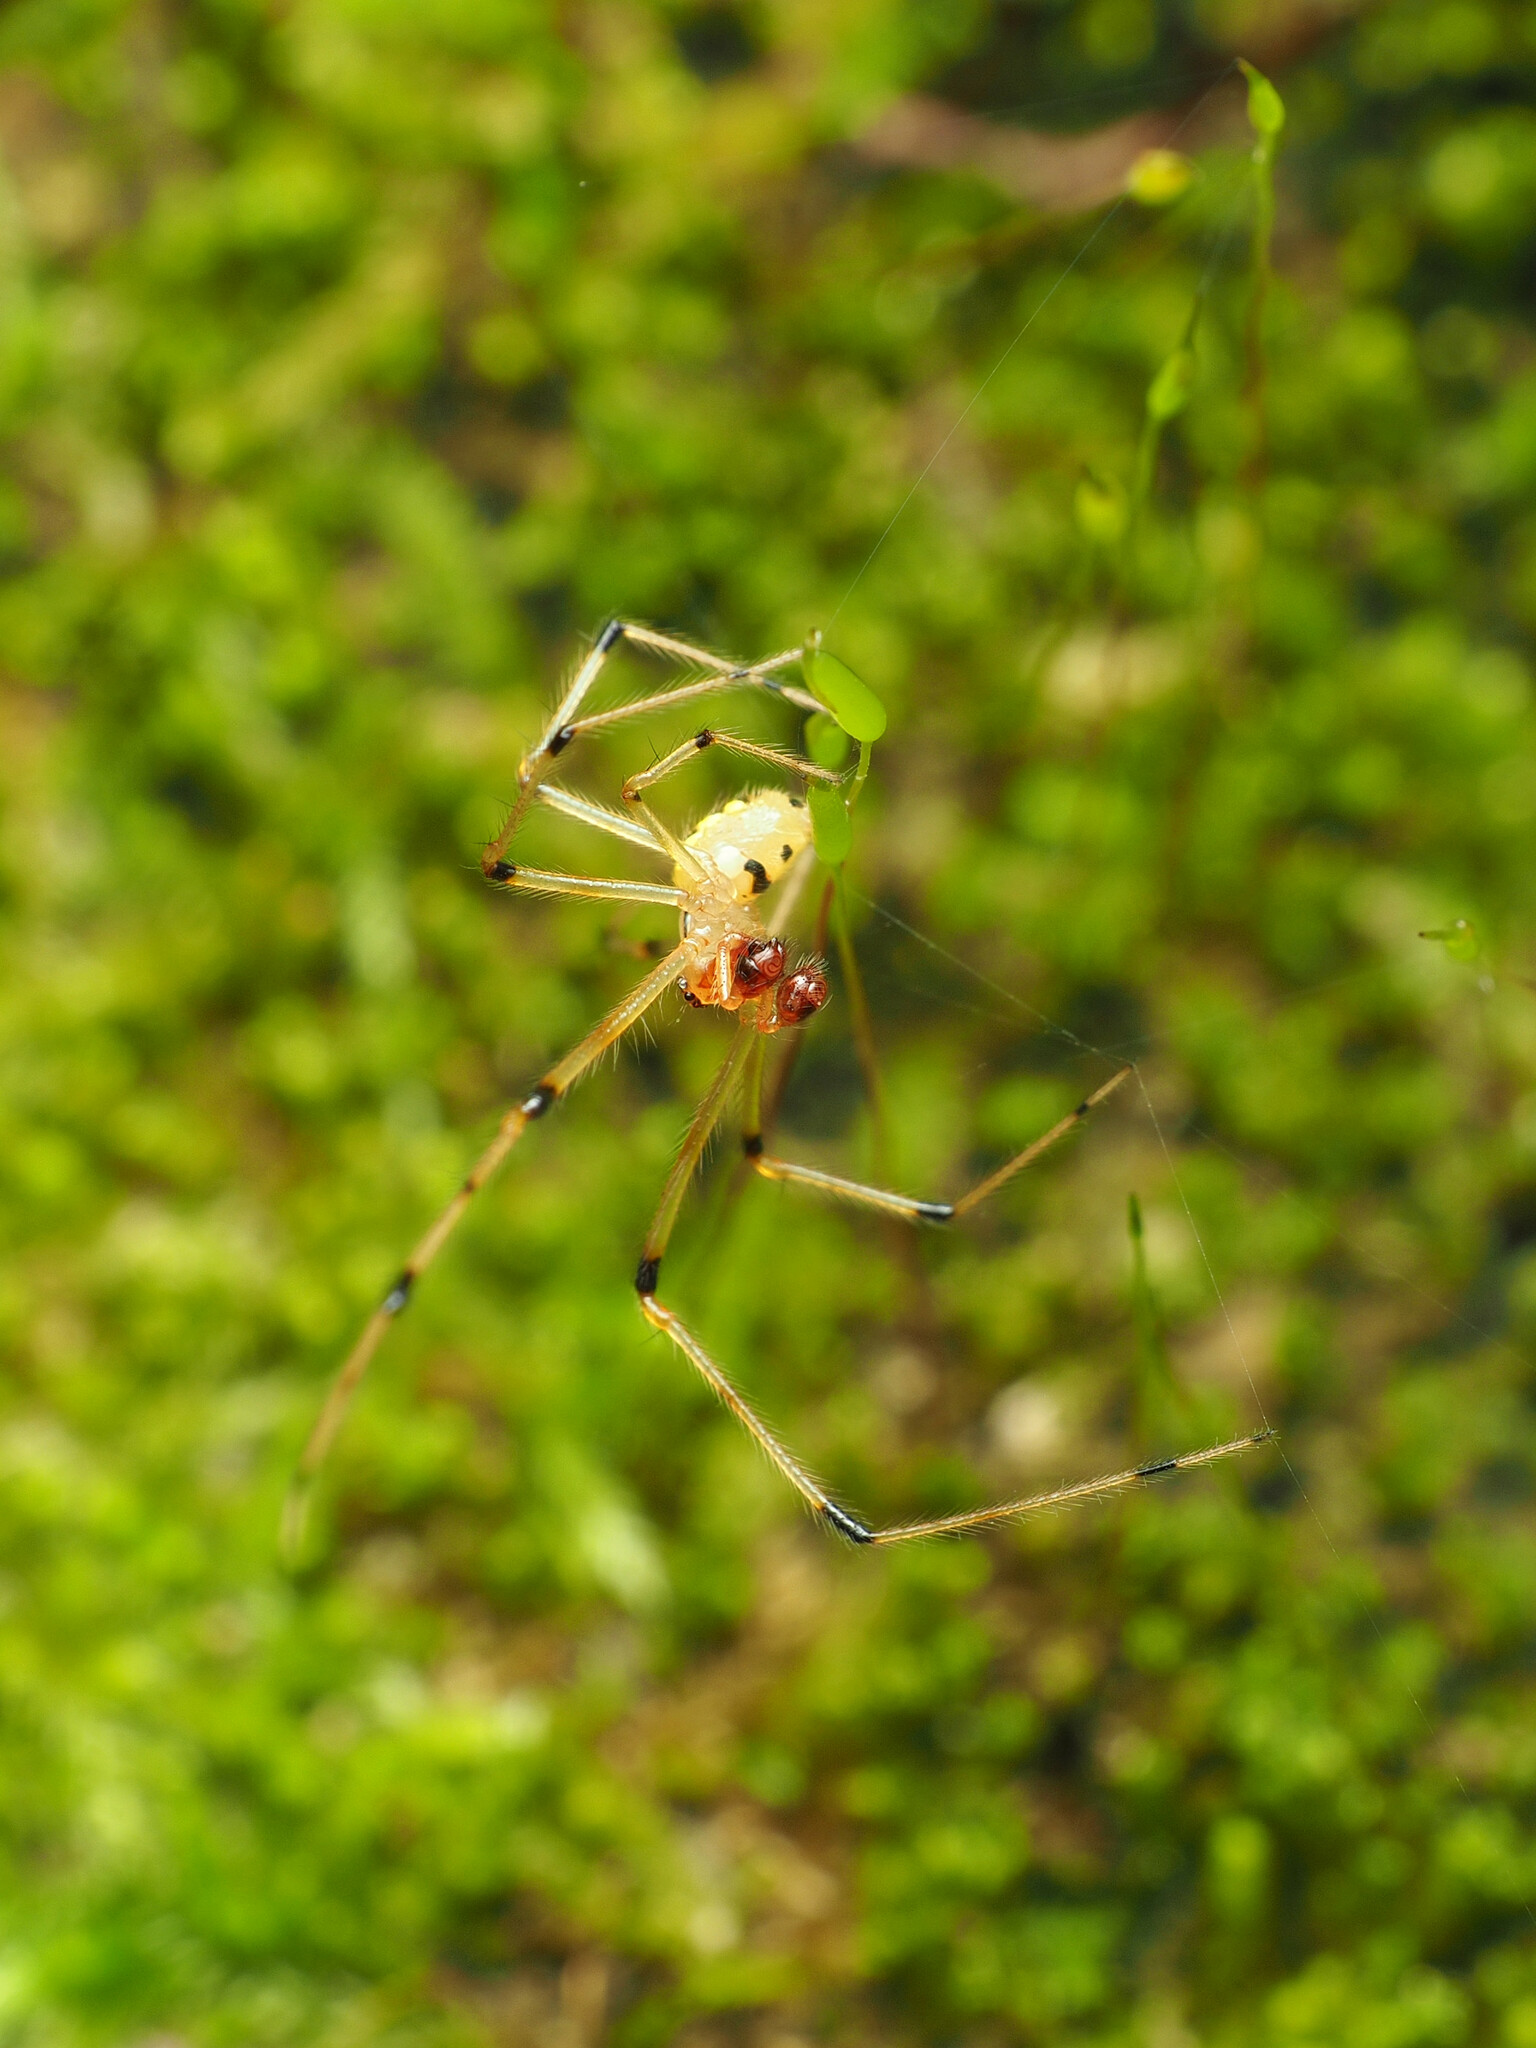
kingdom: Animalia
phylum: Arthropoda
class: Arachnida
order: Araneae
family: Theridiidae
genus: Phylloneta
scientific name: Phylloneta pictipes
